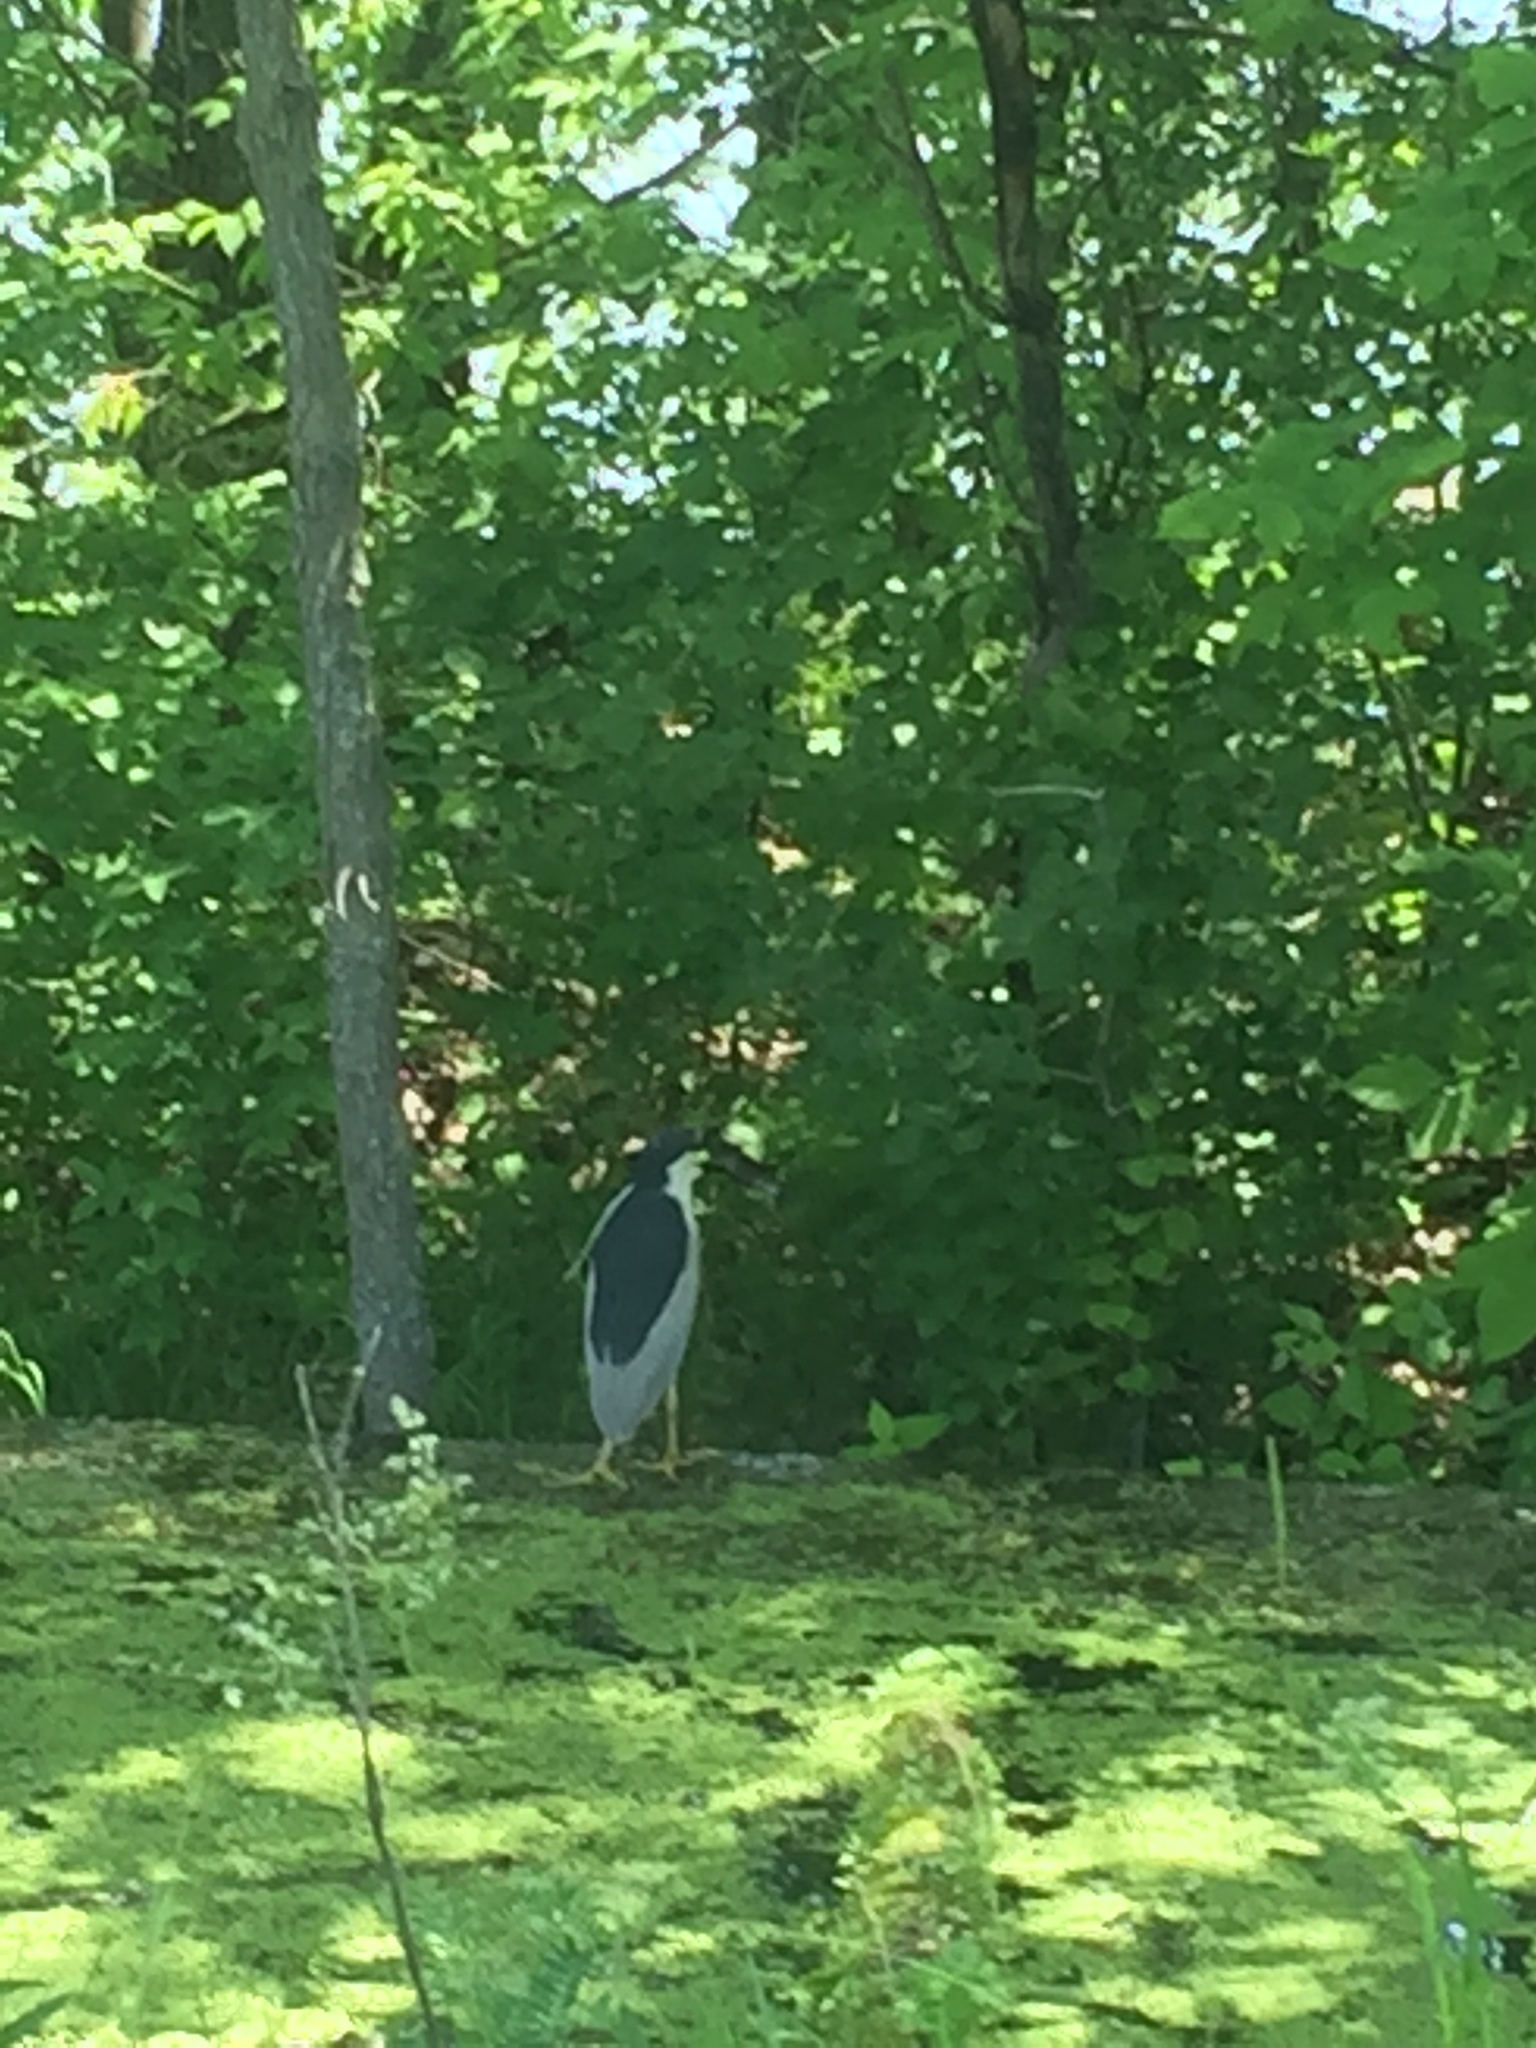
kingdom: Animalia
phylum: Chordata
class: Aves
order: Pelecaniformes
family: Ardeidae
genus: Nycticorax
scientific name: Nycticorax nycticorax
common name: Black-crowned night heron
